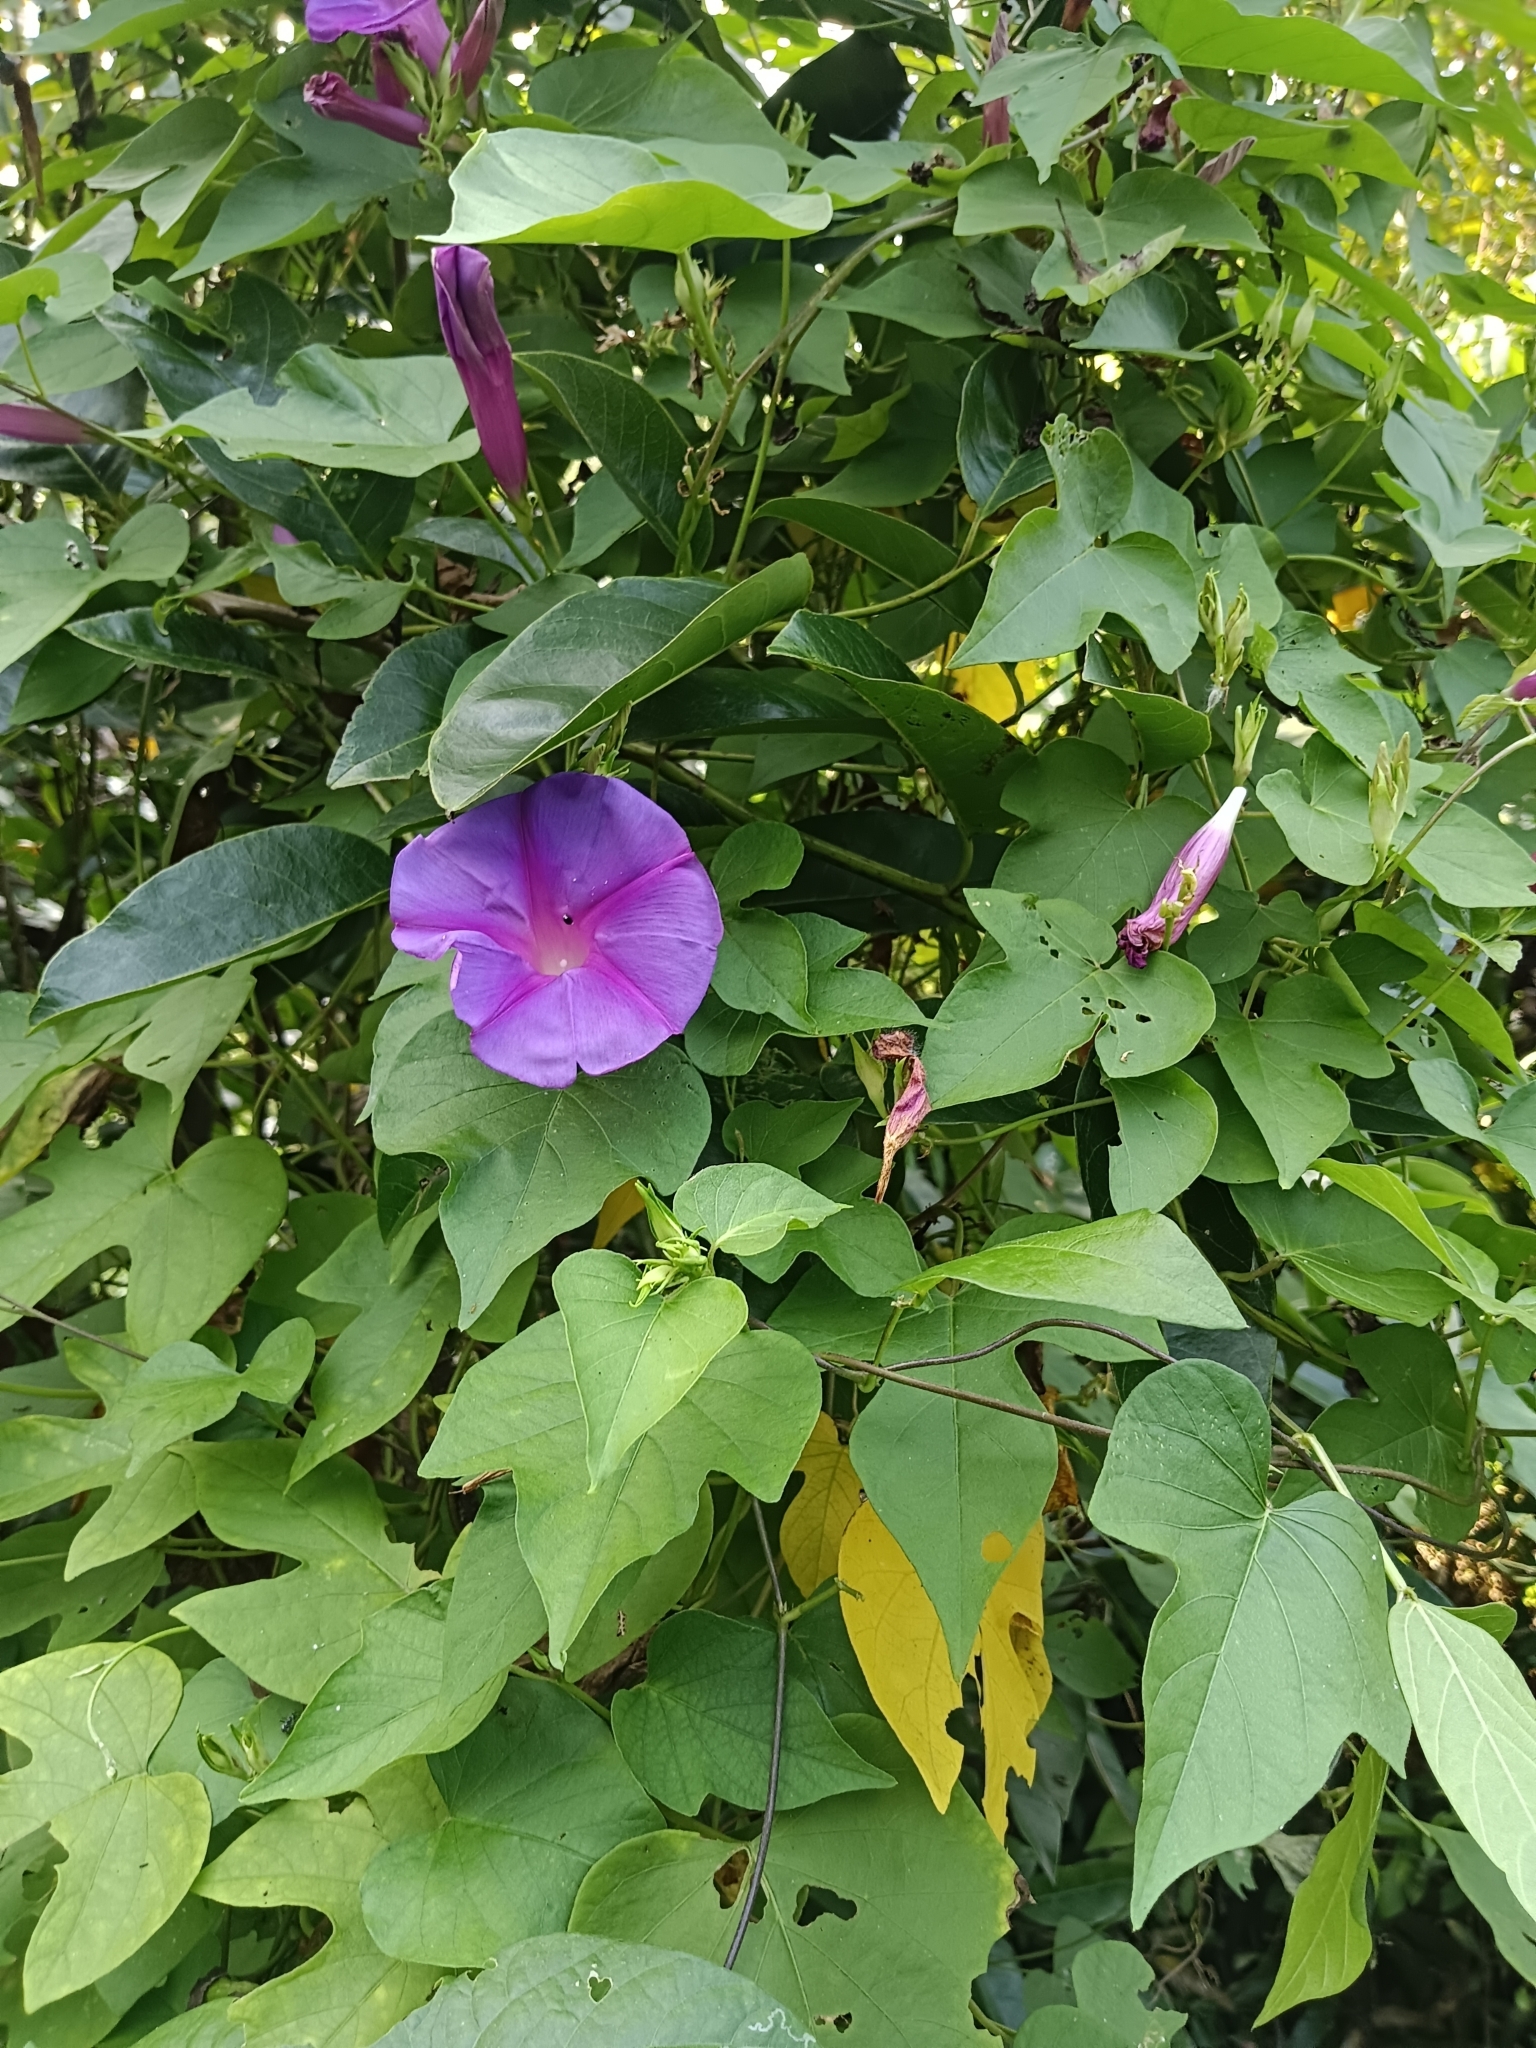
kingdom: Plantae
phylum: Tracheophyta
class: Magnoliopsida
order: Solanales
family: Convolvulaceae
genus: Ipomoea
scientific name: Ipomoea indica
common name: Blue dawnflower
